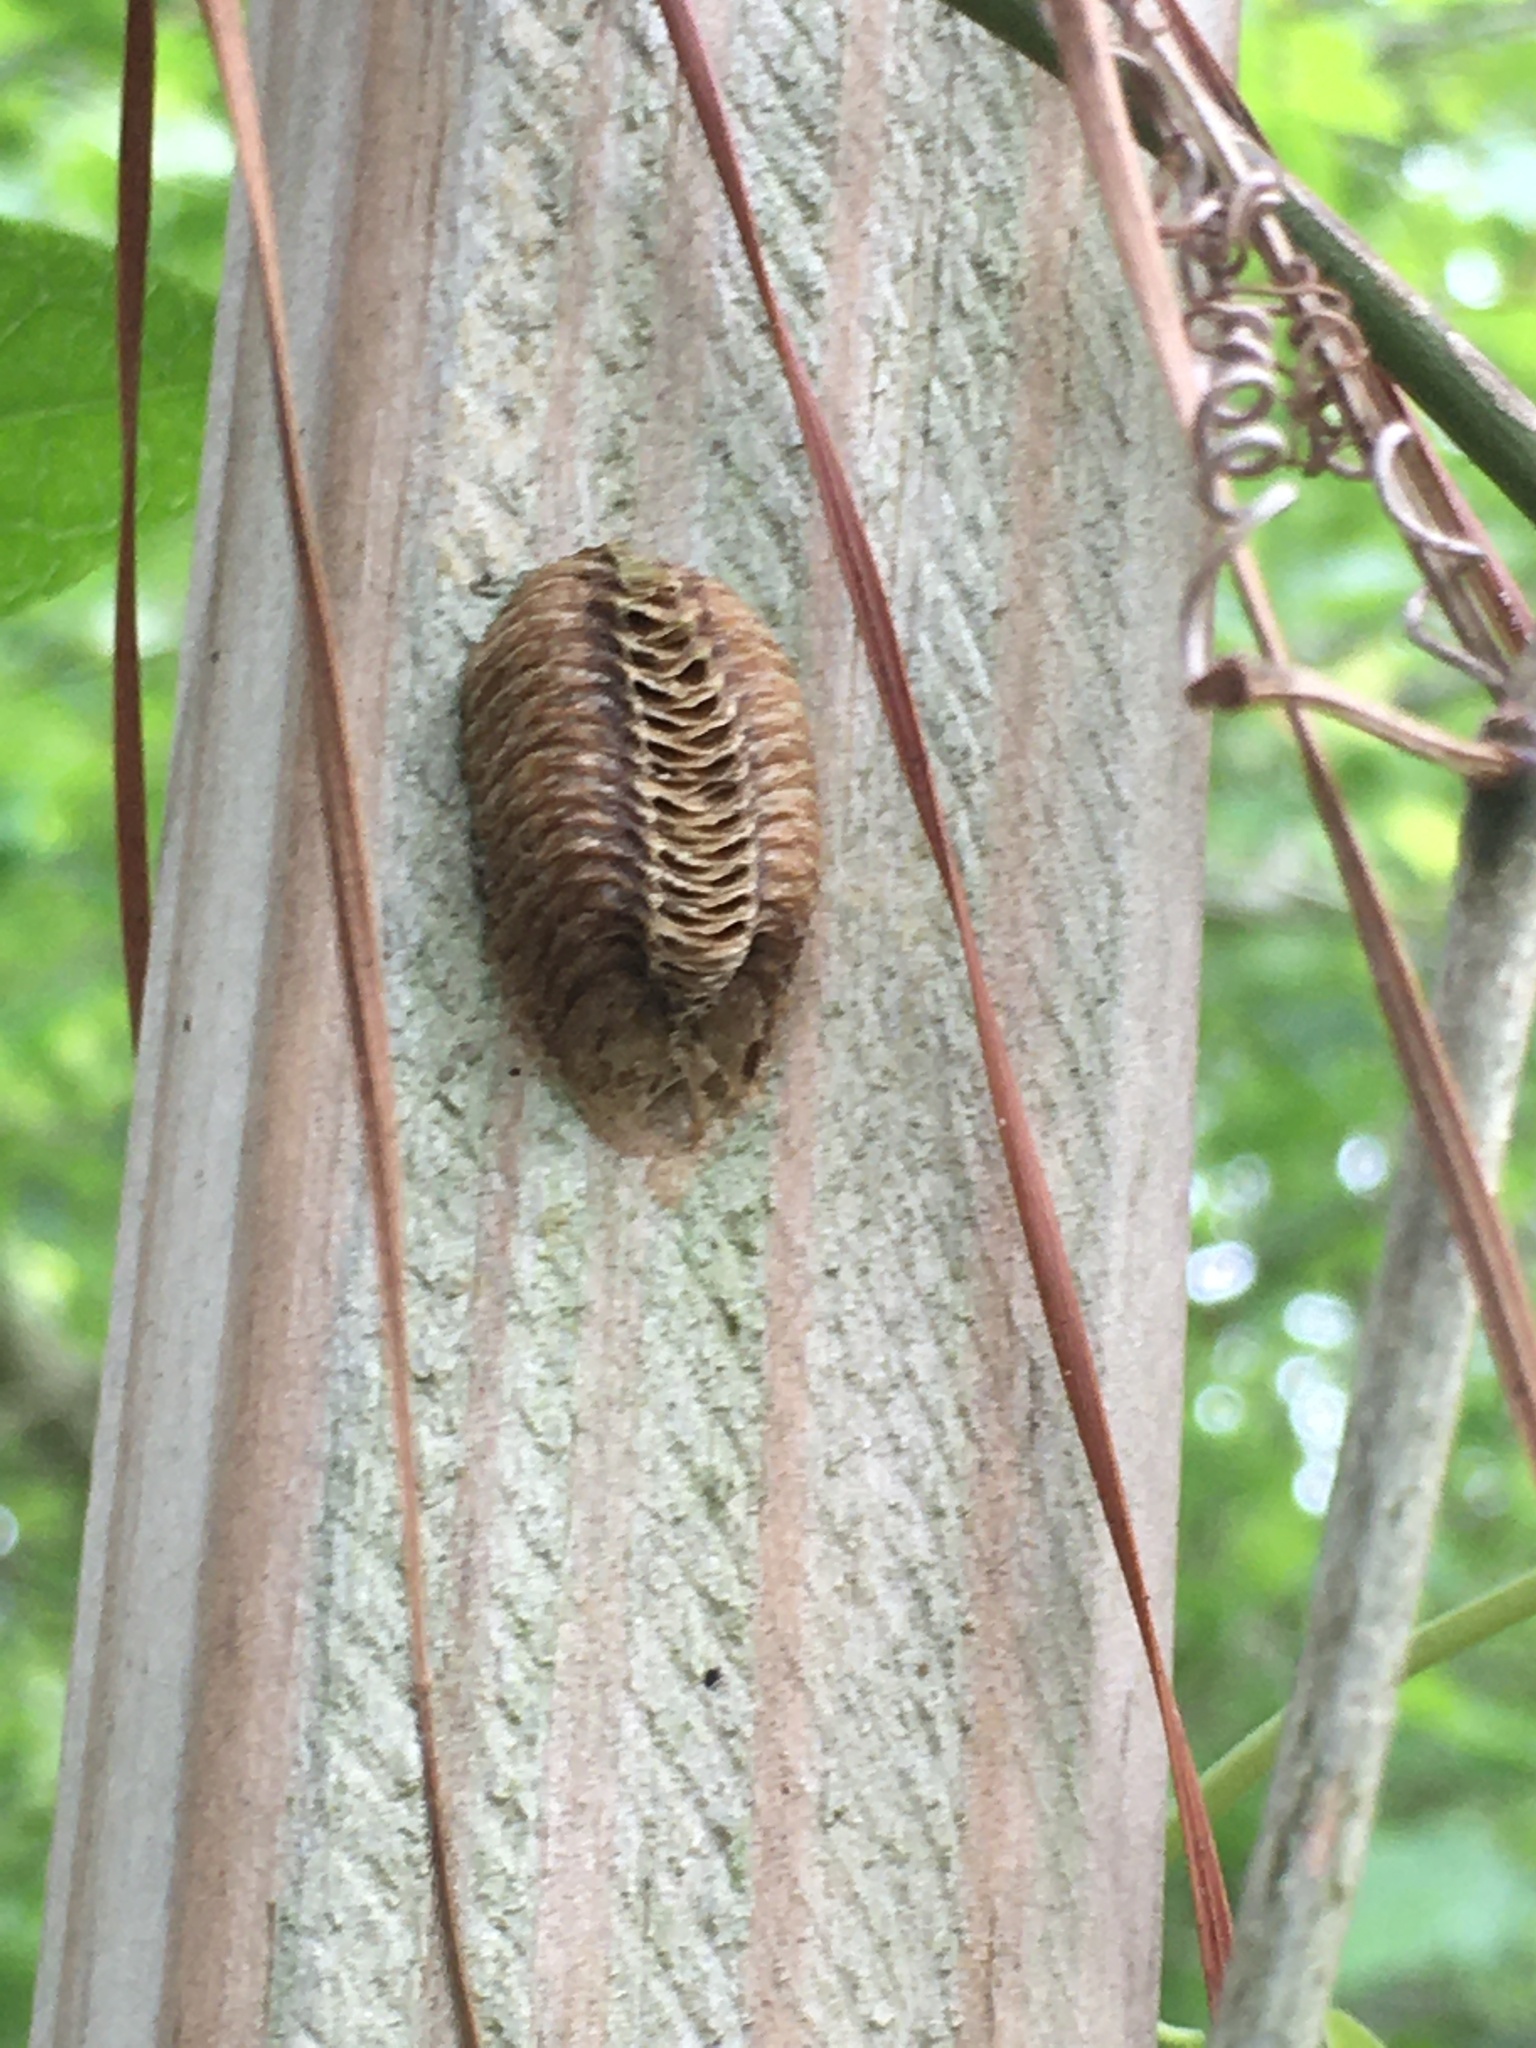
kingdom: Animalia
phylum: Arthropoda
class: Insecta
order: Mantodea
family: Mantidae
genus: Stagmomantis
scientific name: Stagmomantis carolina
